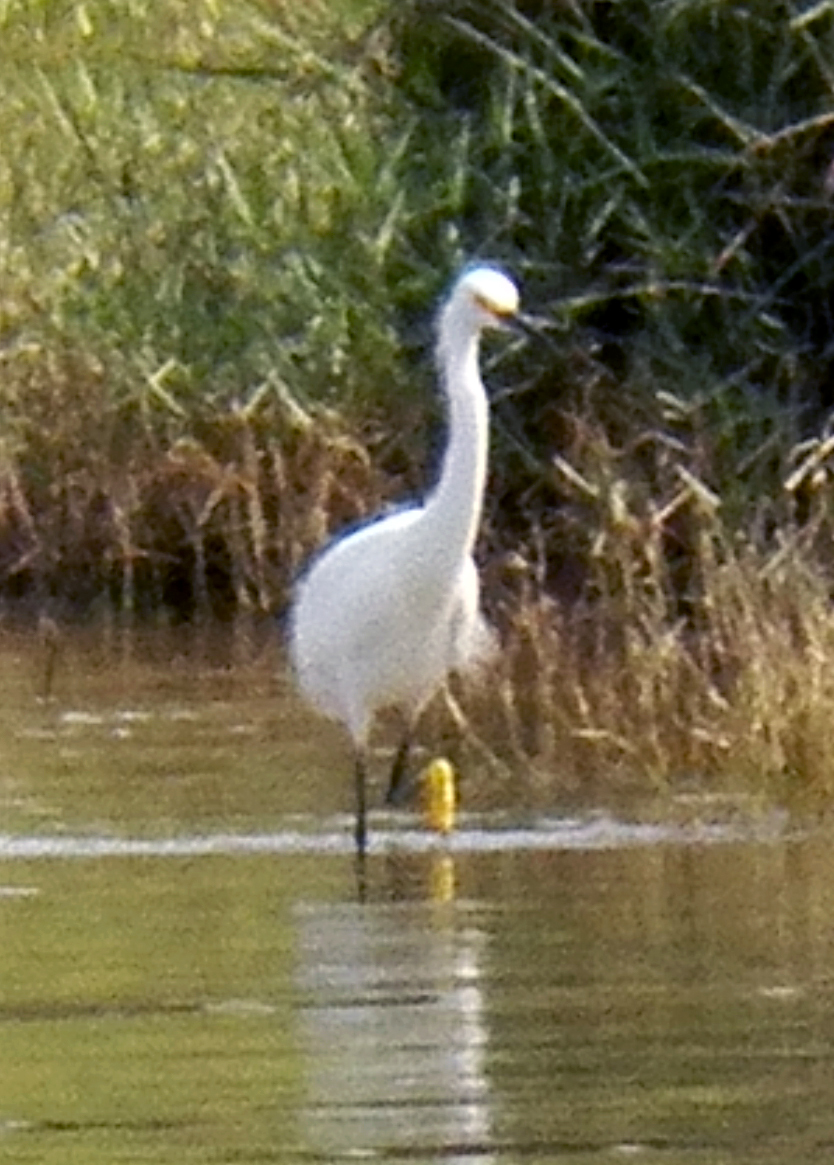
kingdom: Animalia
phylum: Chordata
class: Aves
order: Pelecaniformes
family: Ardeidae
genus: Egretta
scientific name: Egretta thula
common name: Snowy egret
